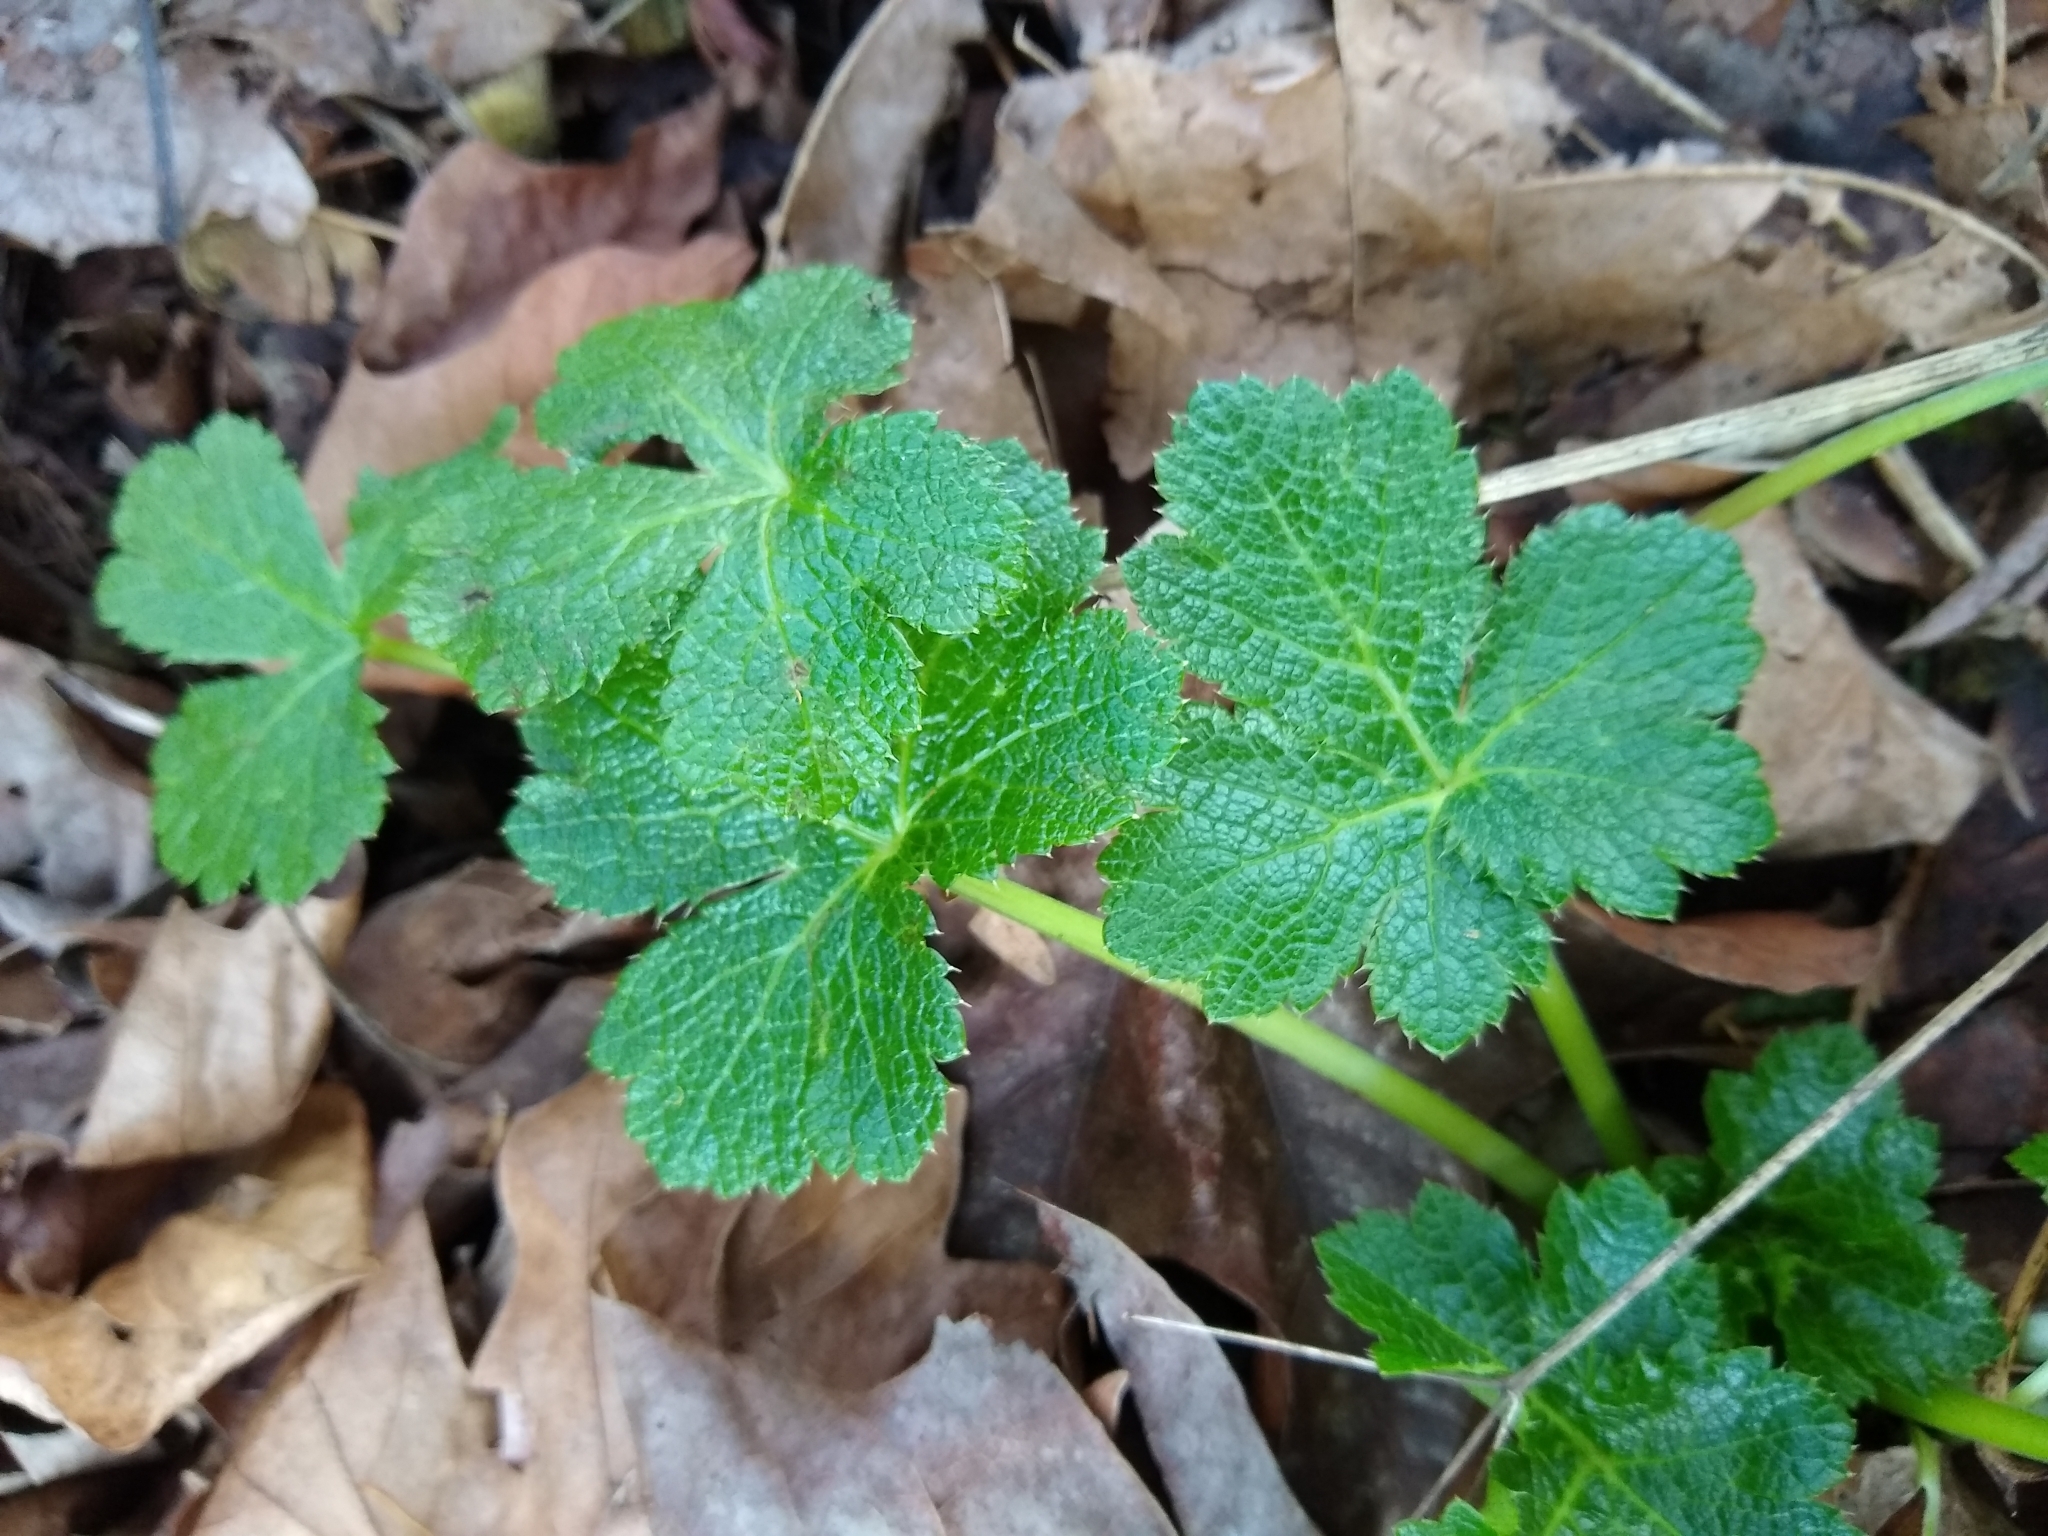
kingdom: Plantae
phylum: Tracheophyta
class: Magnoliopsida
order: Apiales
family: Apiaceae
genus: Sanicula
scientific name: Sanicula crassicaulis
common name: Western snakeroot
